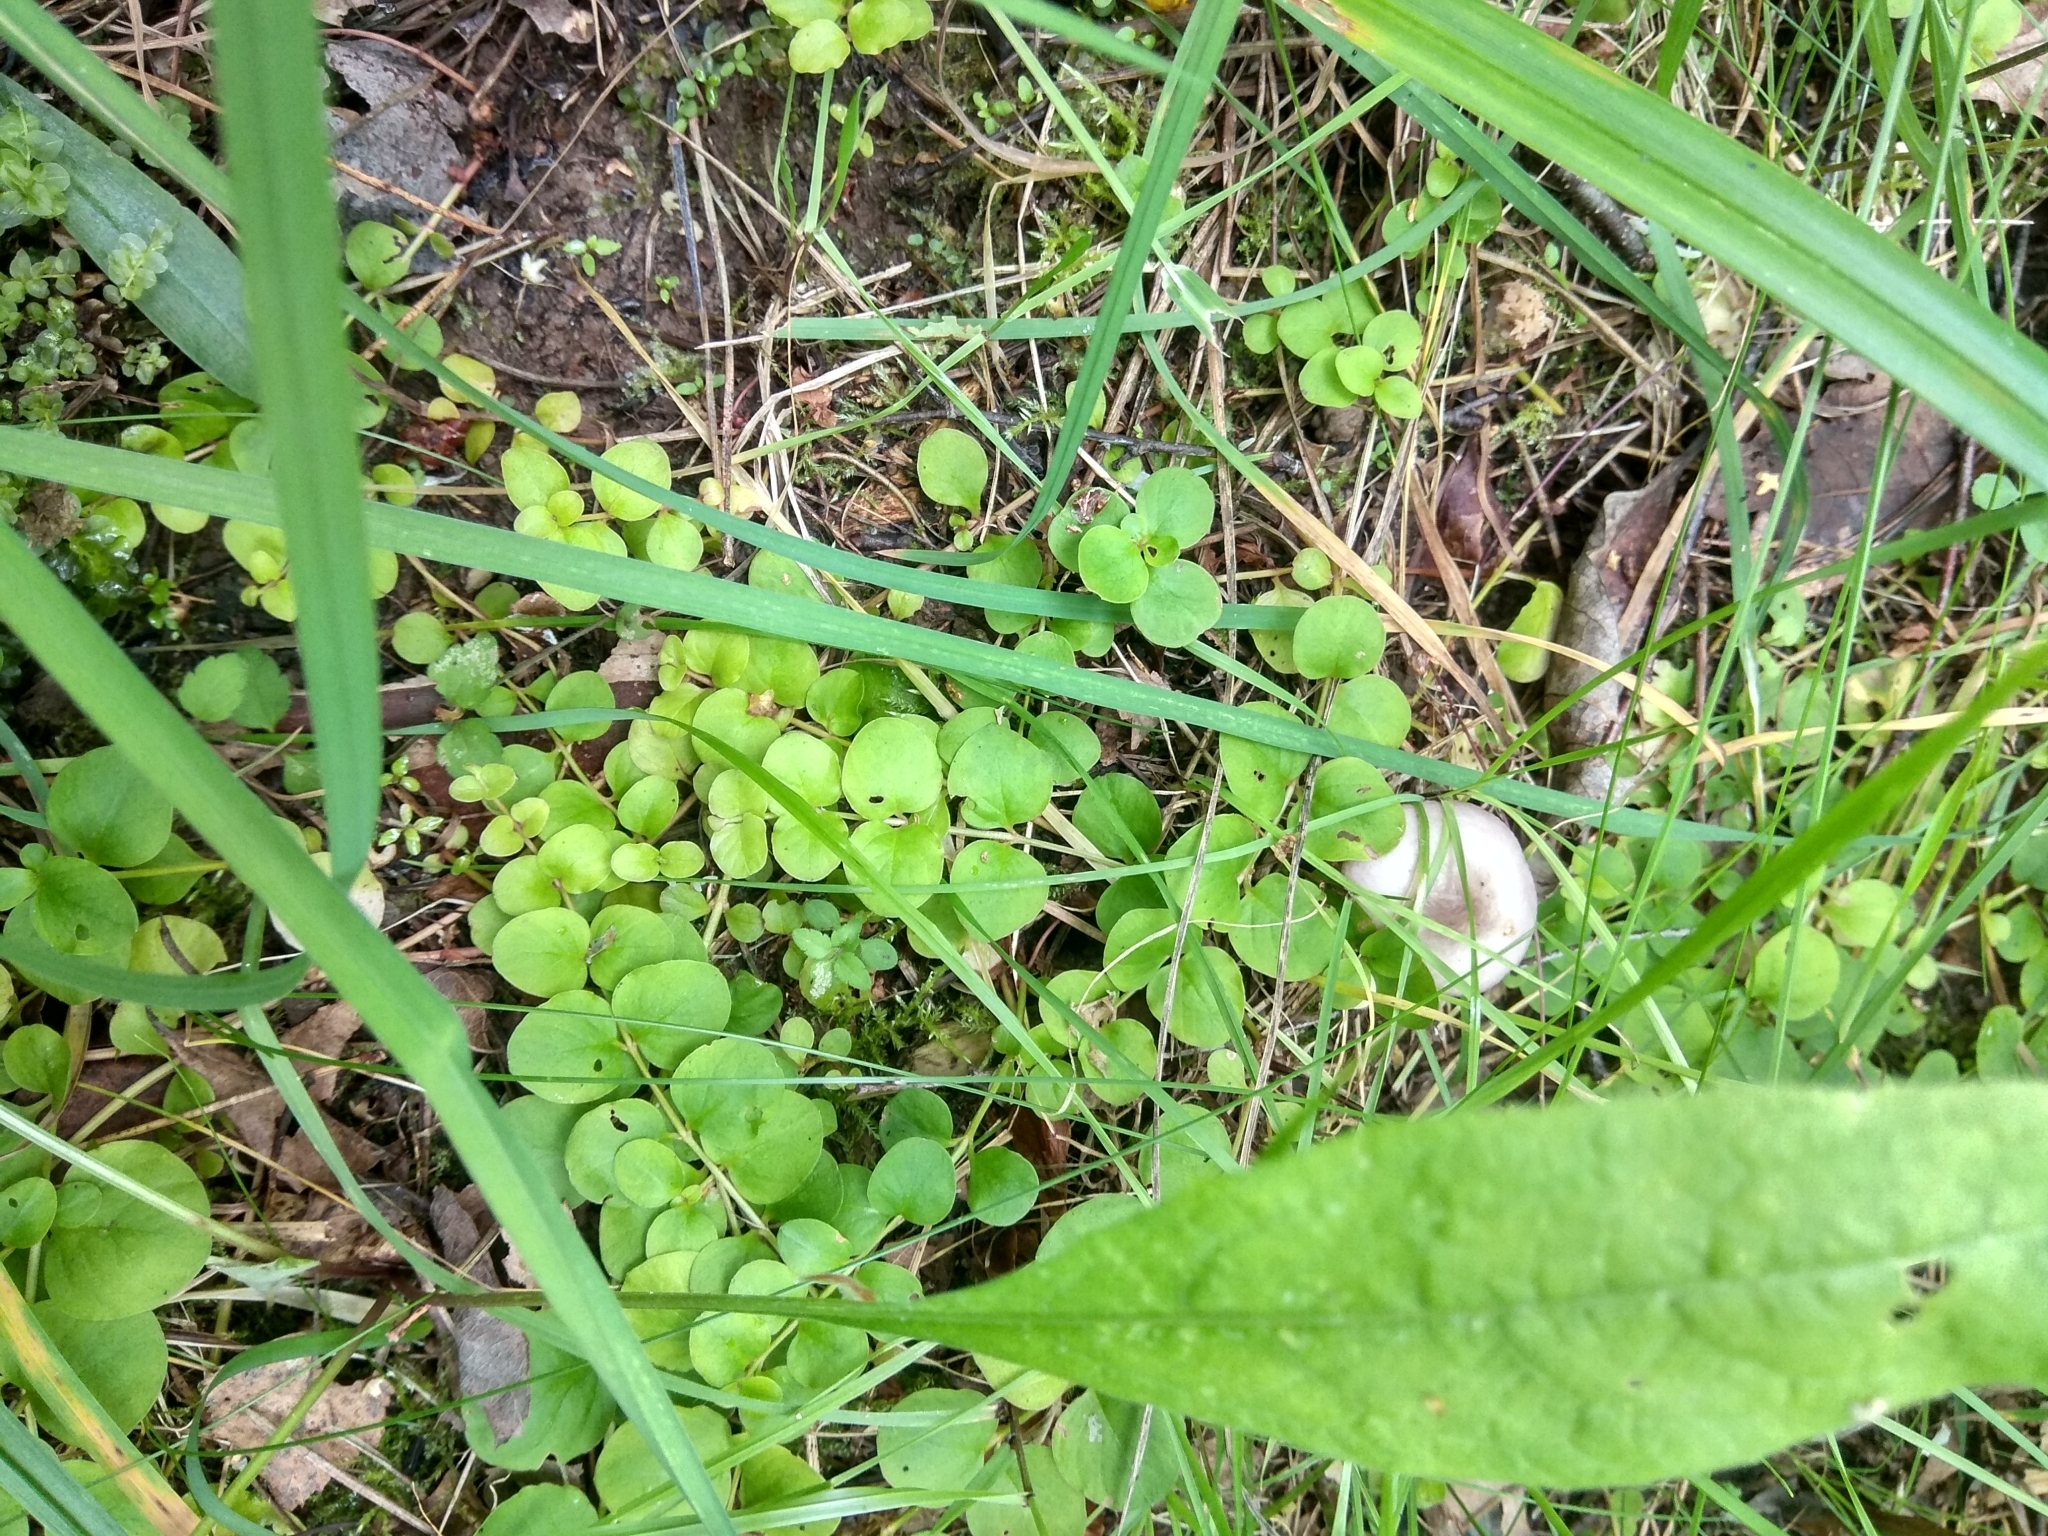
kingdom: Plantae
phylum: Tracheophyta
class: Magnoliopsida
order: Ericales
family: Primulaceae
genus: Lysimachia
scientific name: Lysimachia nummularia
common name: Moneywort
